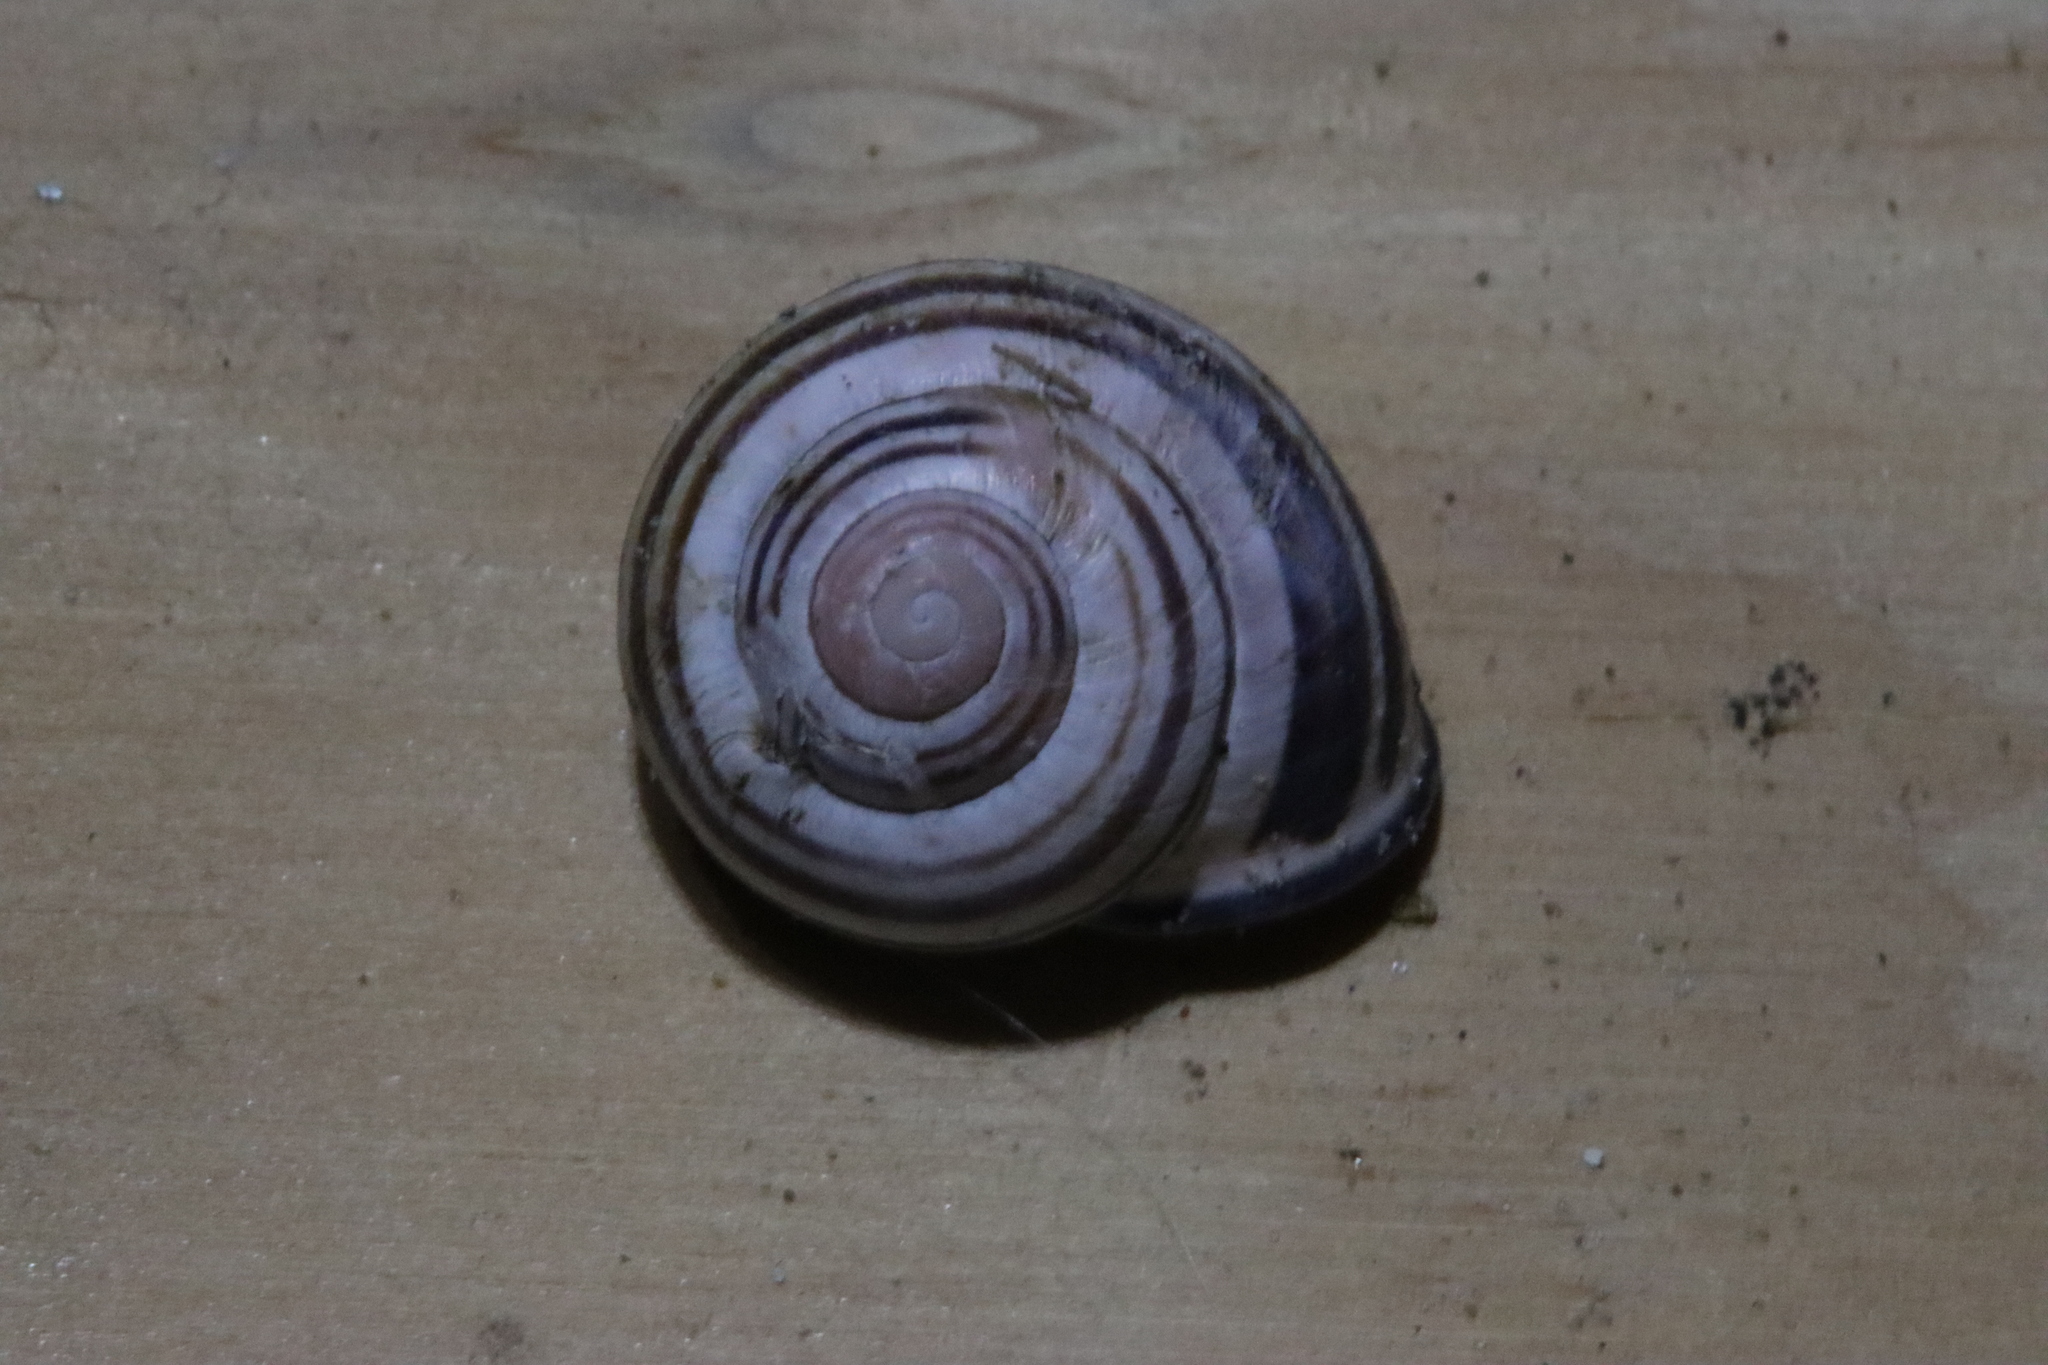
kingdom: Animalia
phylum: Mollusca
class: Gastropoda
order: Stylommatophora
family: Helicidae
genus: Cepaea
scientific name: Cepaea nemoralis
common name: Grovesnail
